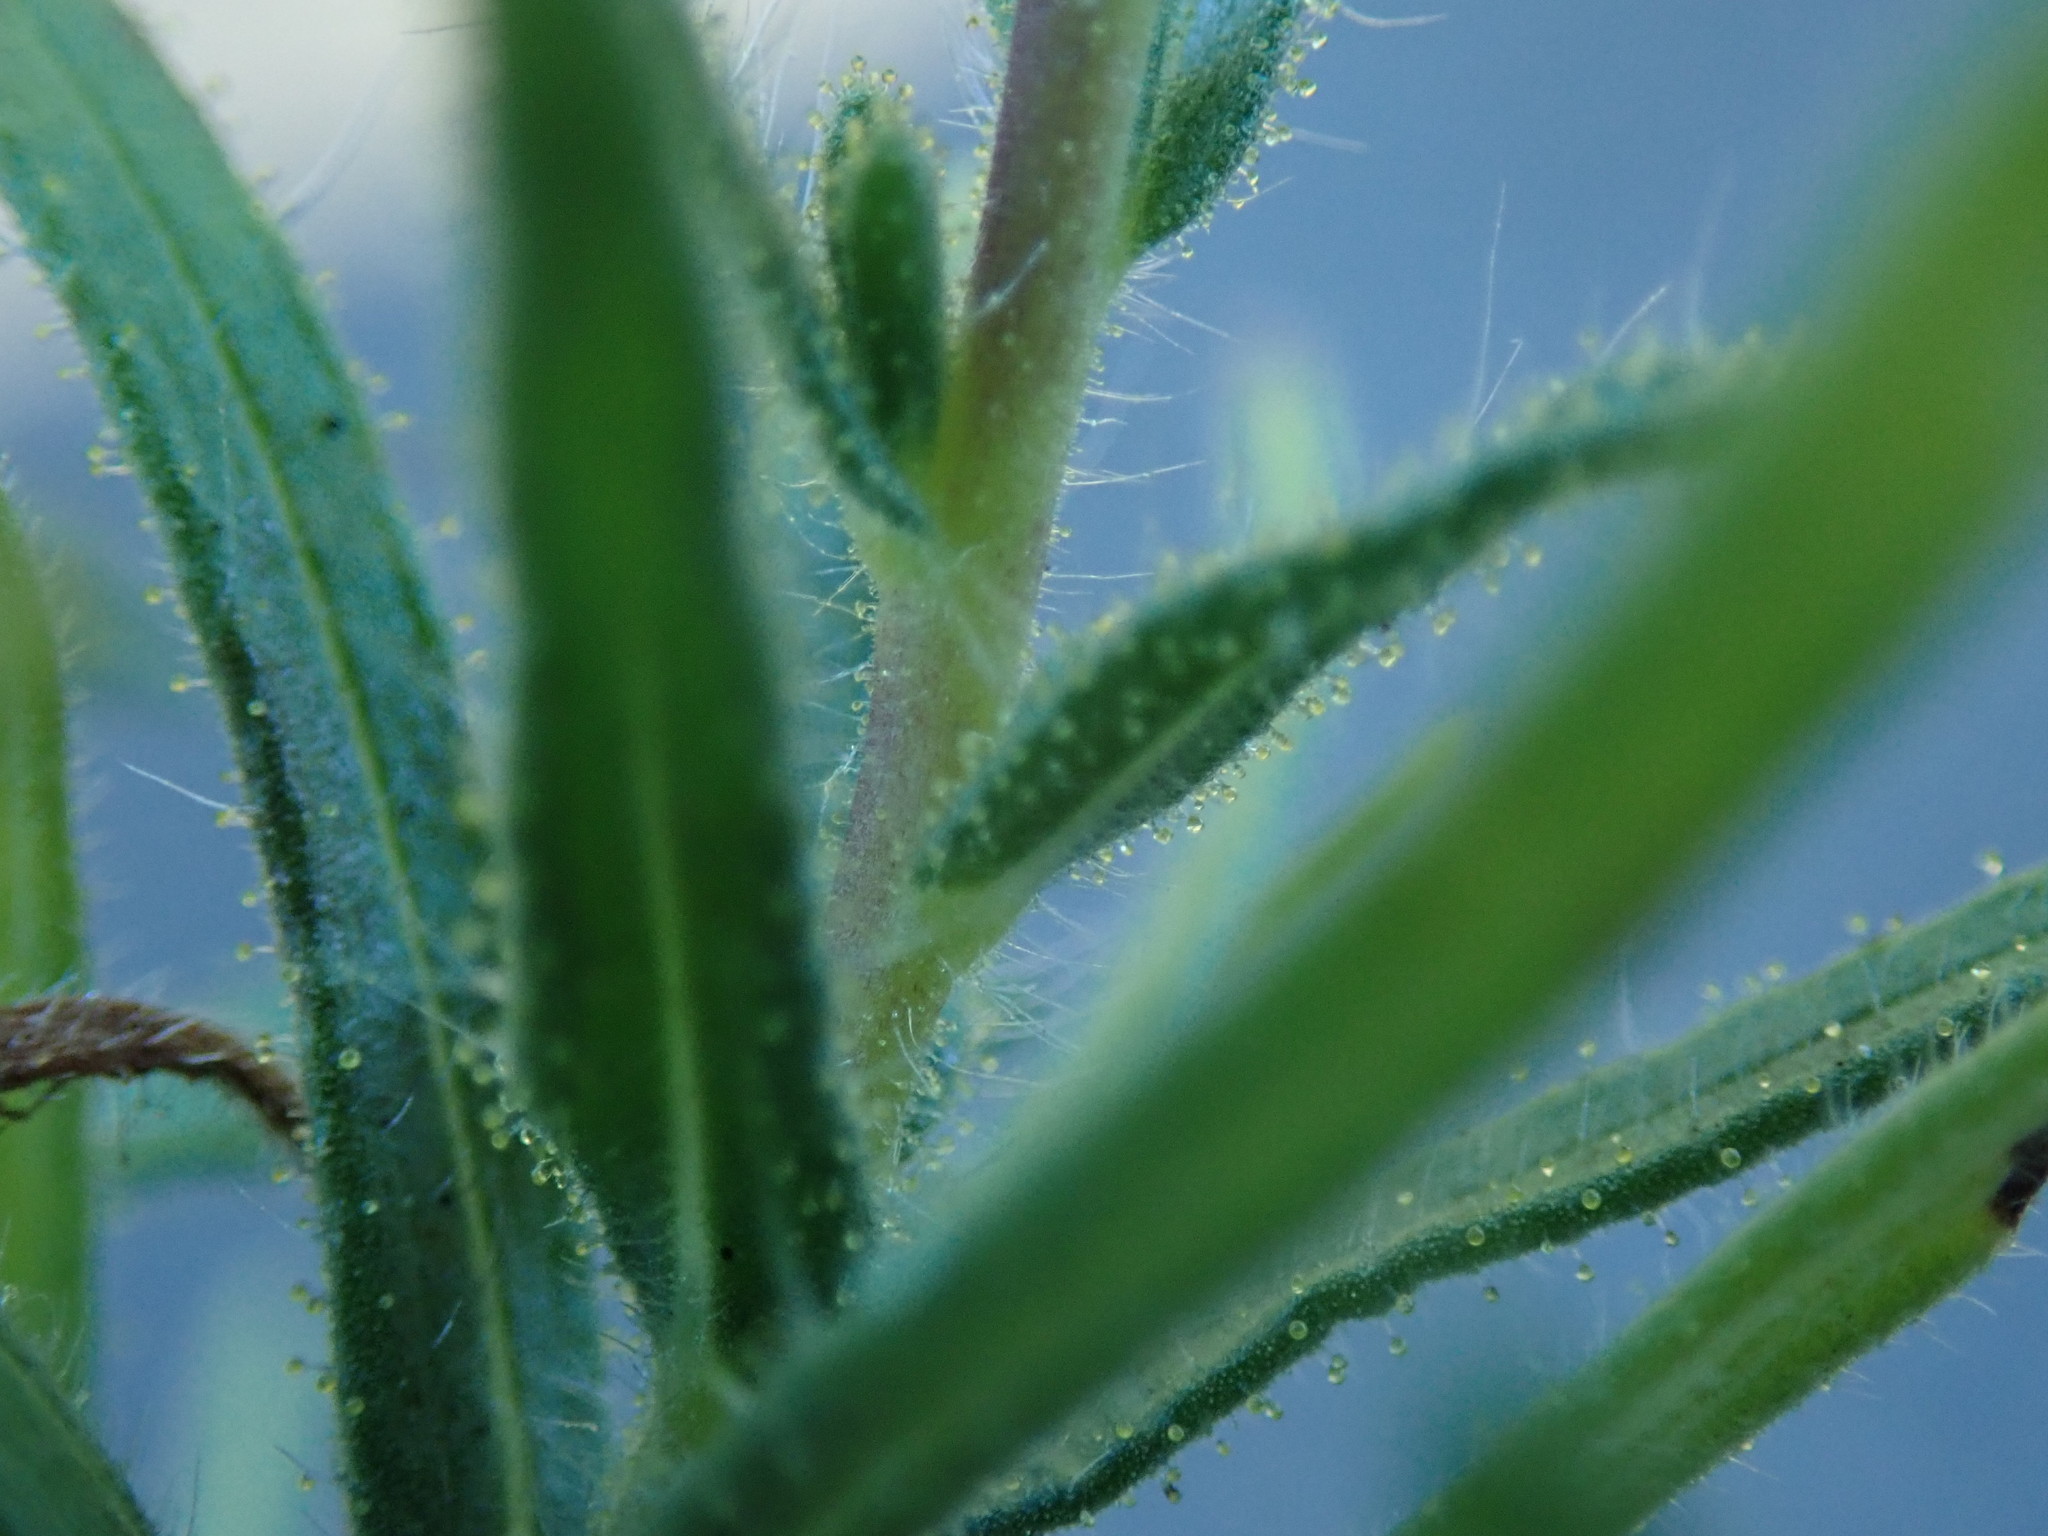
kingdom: Plantae
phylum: Tracheophyta
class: Magnoliopsida
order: Asterales
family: Asteraceae
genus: Madia
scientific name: Madia sativa
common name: Coast tarweed
